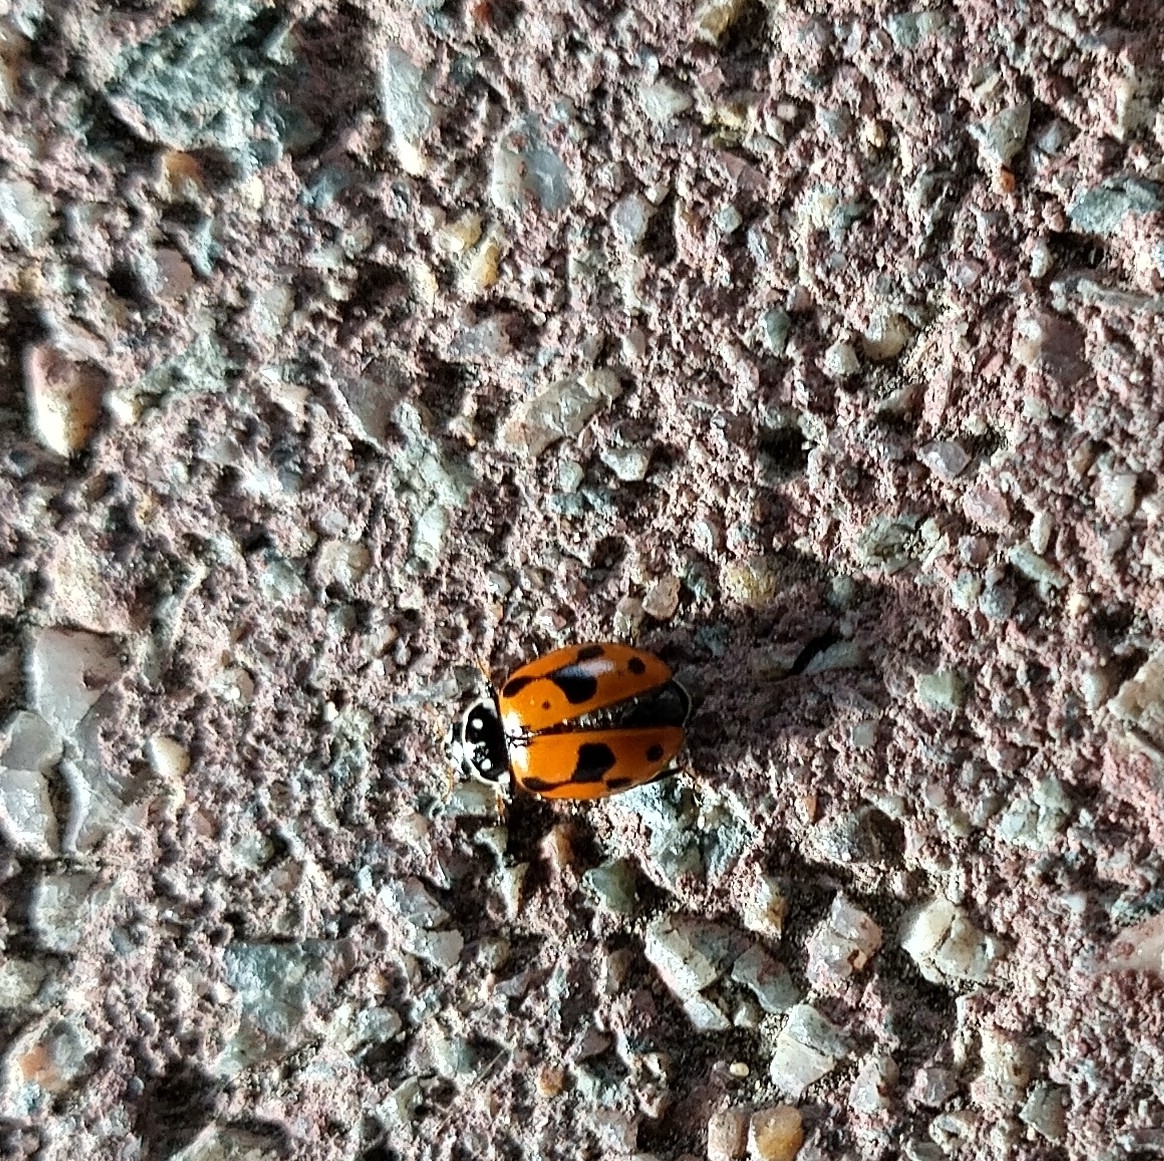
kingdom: Animalia
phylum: Arthropoda
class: Insecta
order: Coleoptera
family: Coccinellidae
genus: Hippodamia
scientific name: Hippodamia variegata
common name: Ladybird beetle
